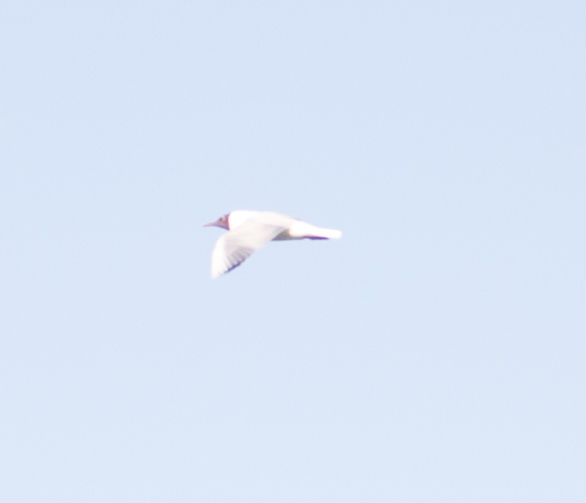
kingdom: Animalia
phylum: Chordata
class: Aves
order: Charadriiformes
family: Laridae
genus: Chroicocephalus
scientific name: Chroicocephalus ridibundus
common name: Black-headed gull
